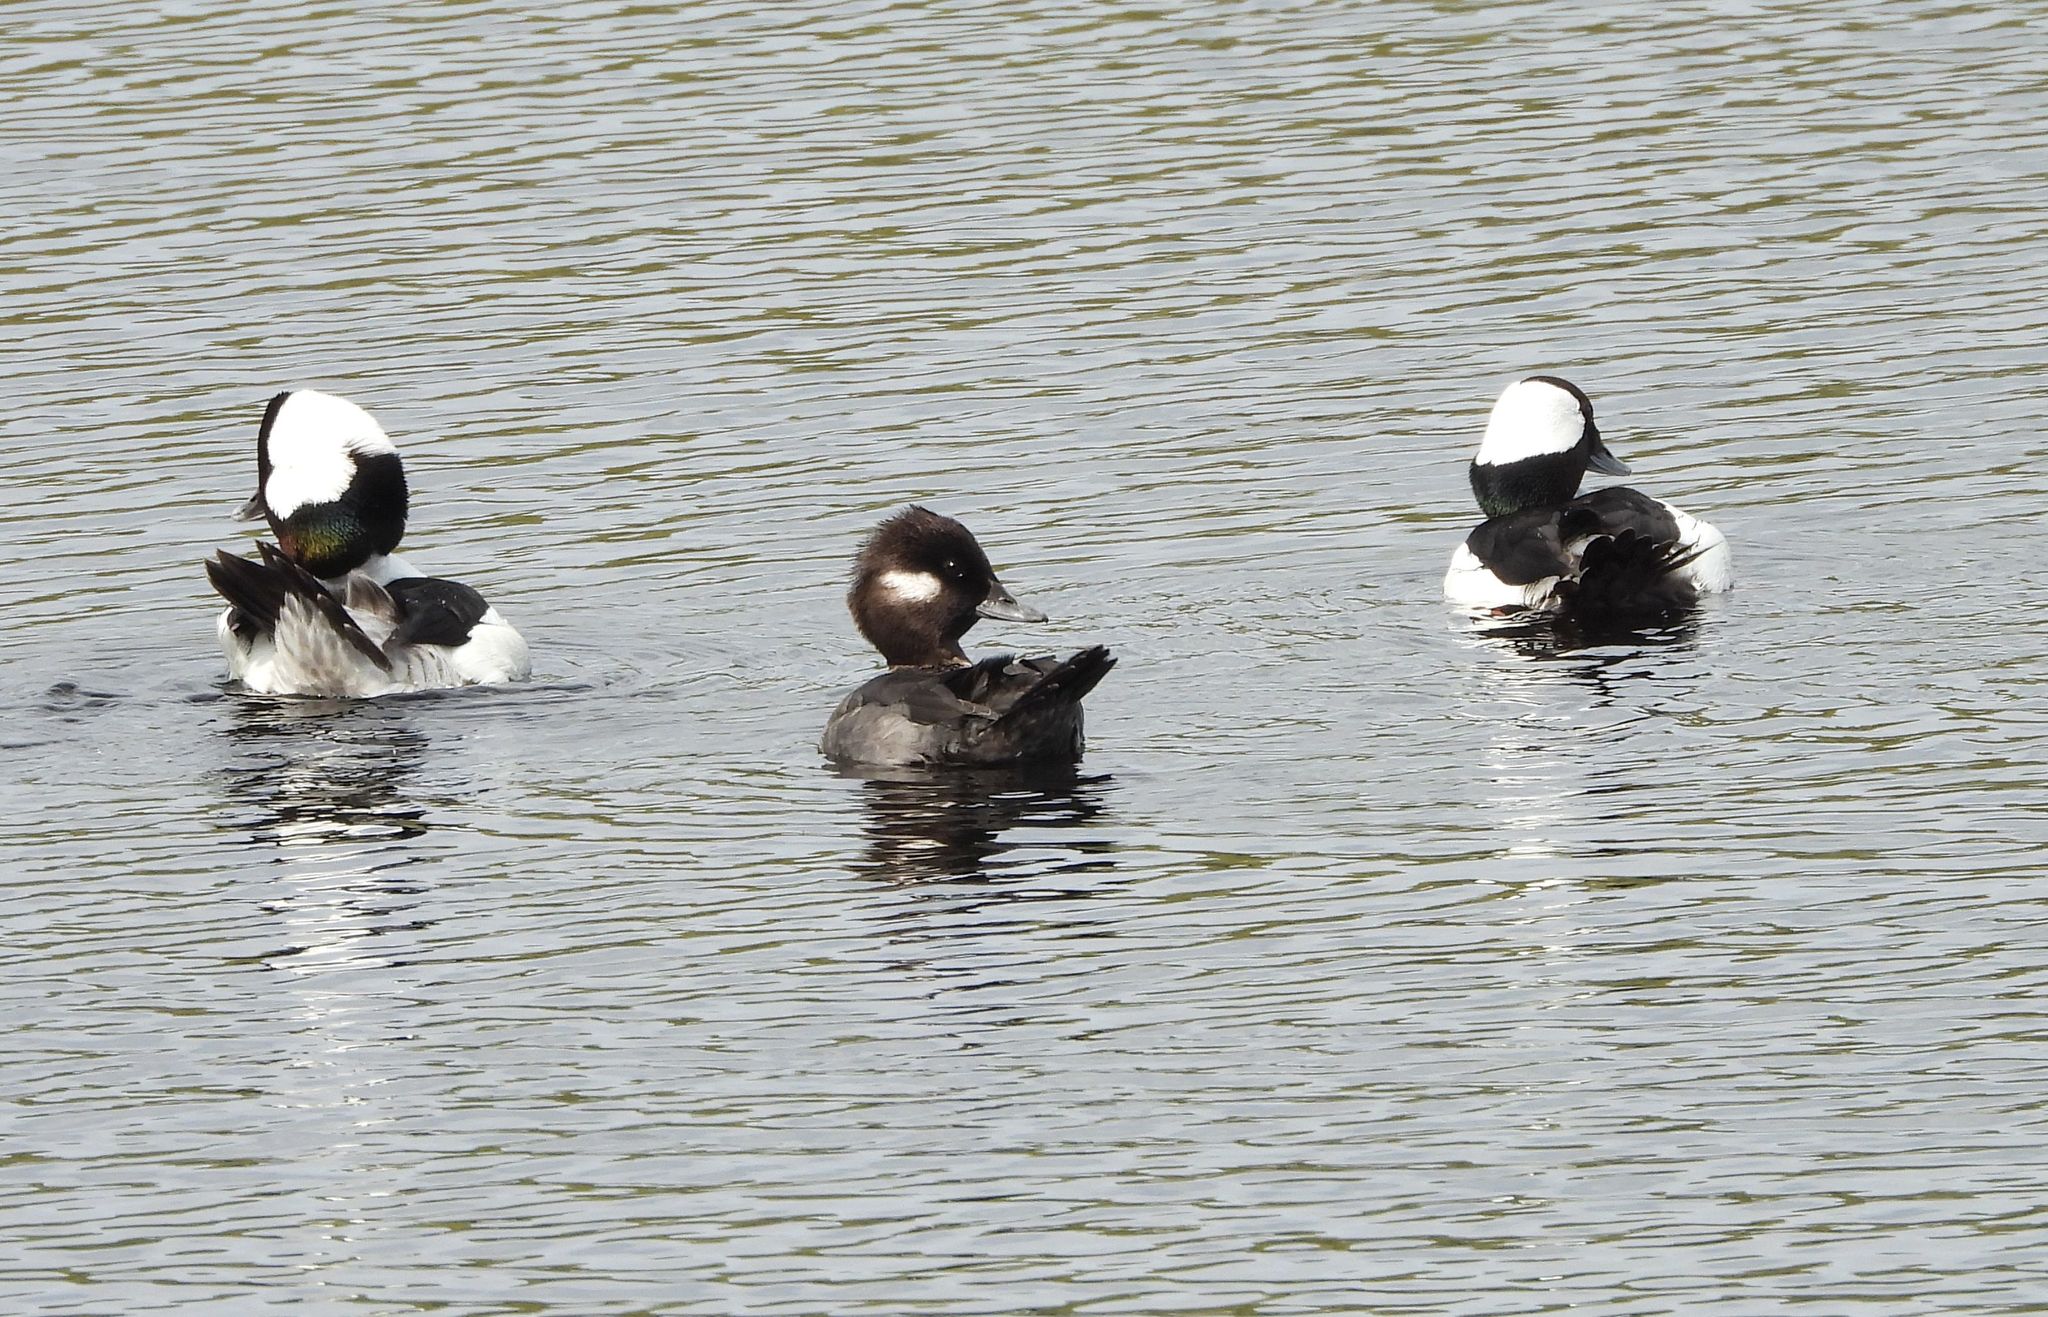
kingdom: Animalia
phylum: Chordata
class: Aves
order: Anseriformes
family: Anatidae
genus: Bucephala
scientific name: Bucephala albeola
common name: Bufflehead
